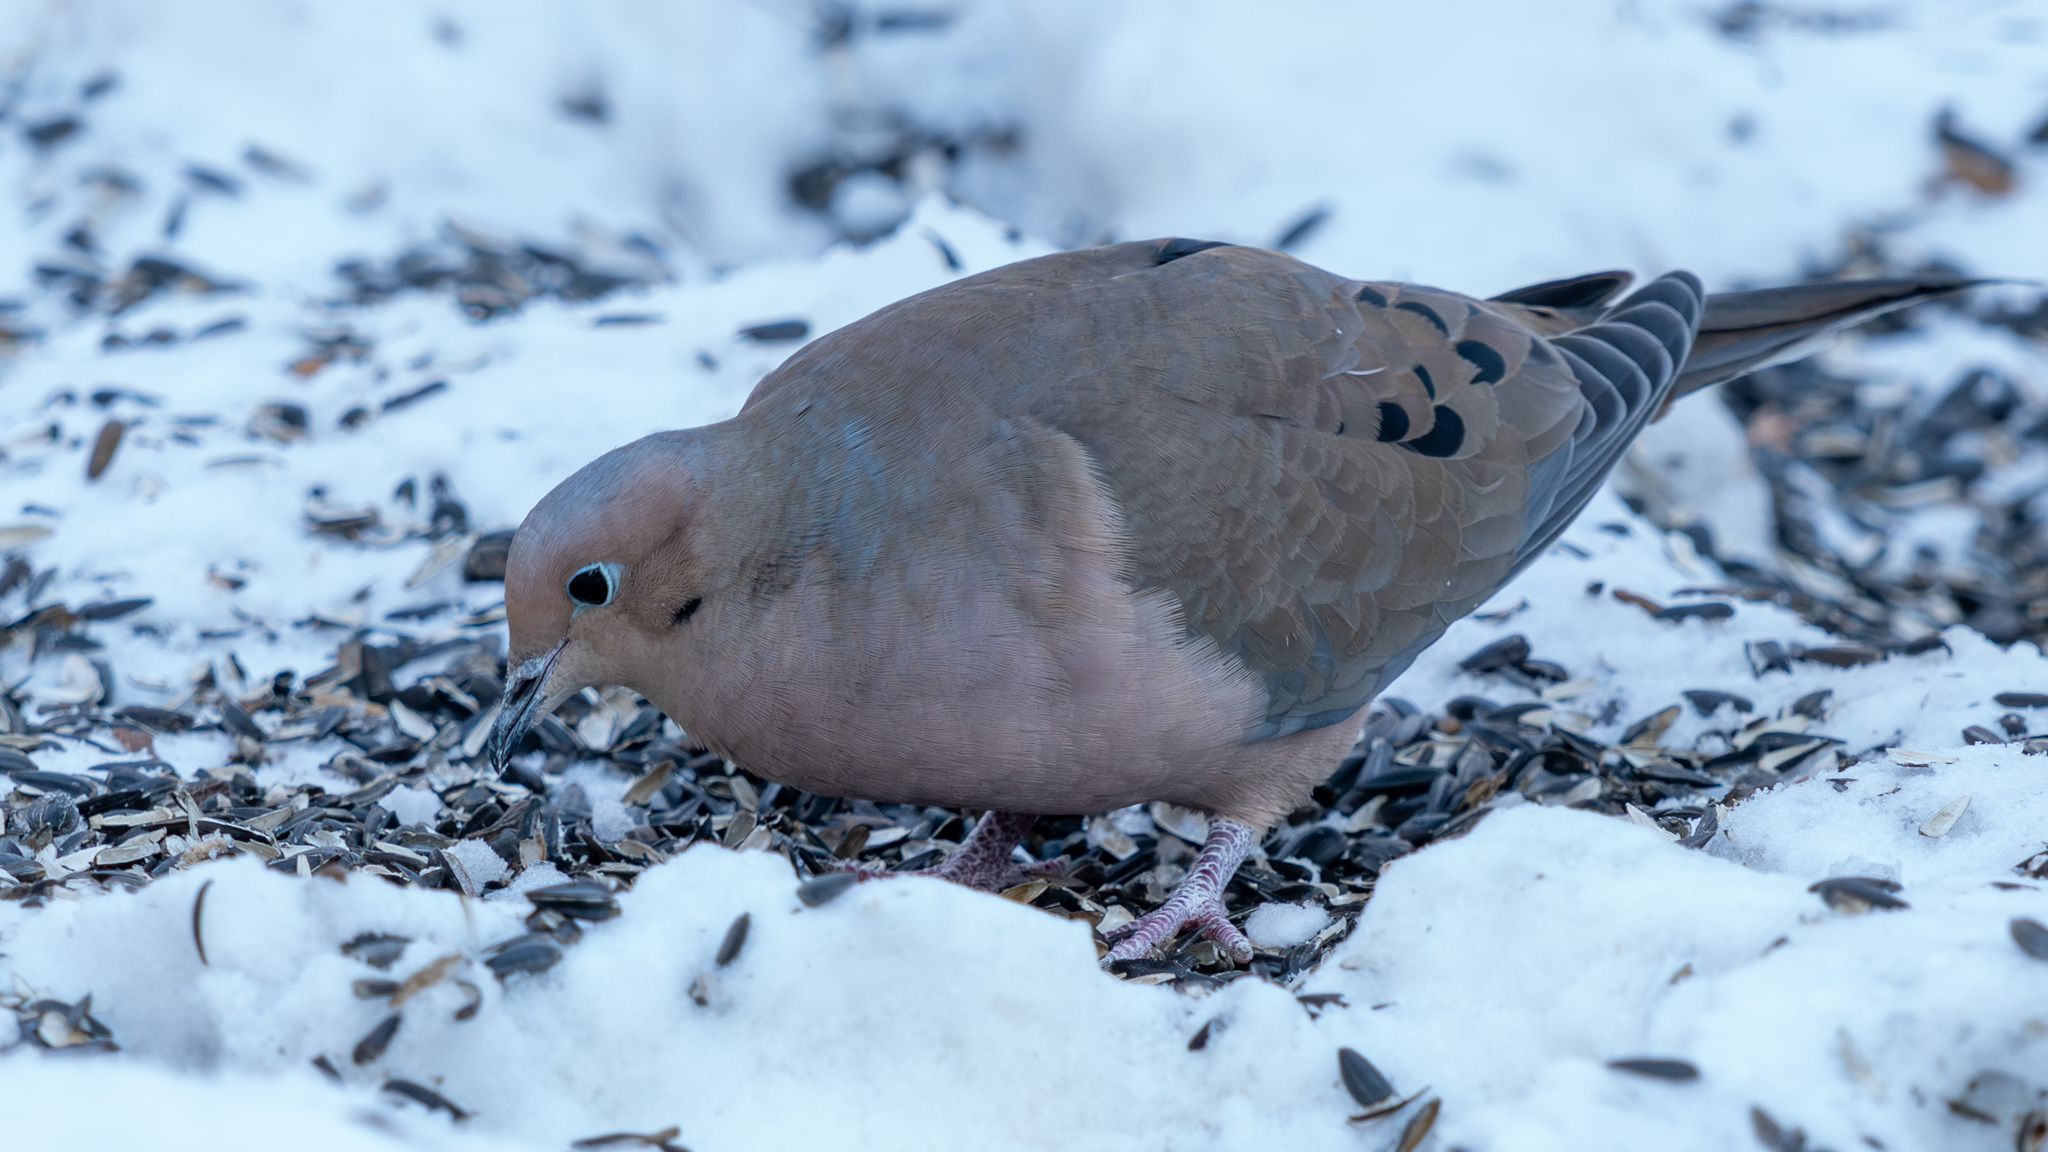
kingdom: Animalia
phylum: Chordata
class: Aves
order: Columbiformes
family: Columbidae
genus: Zenaida
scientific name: Zenaida macroura
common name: Mourning dove
